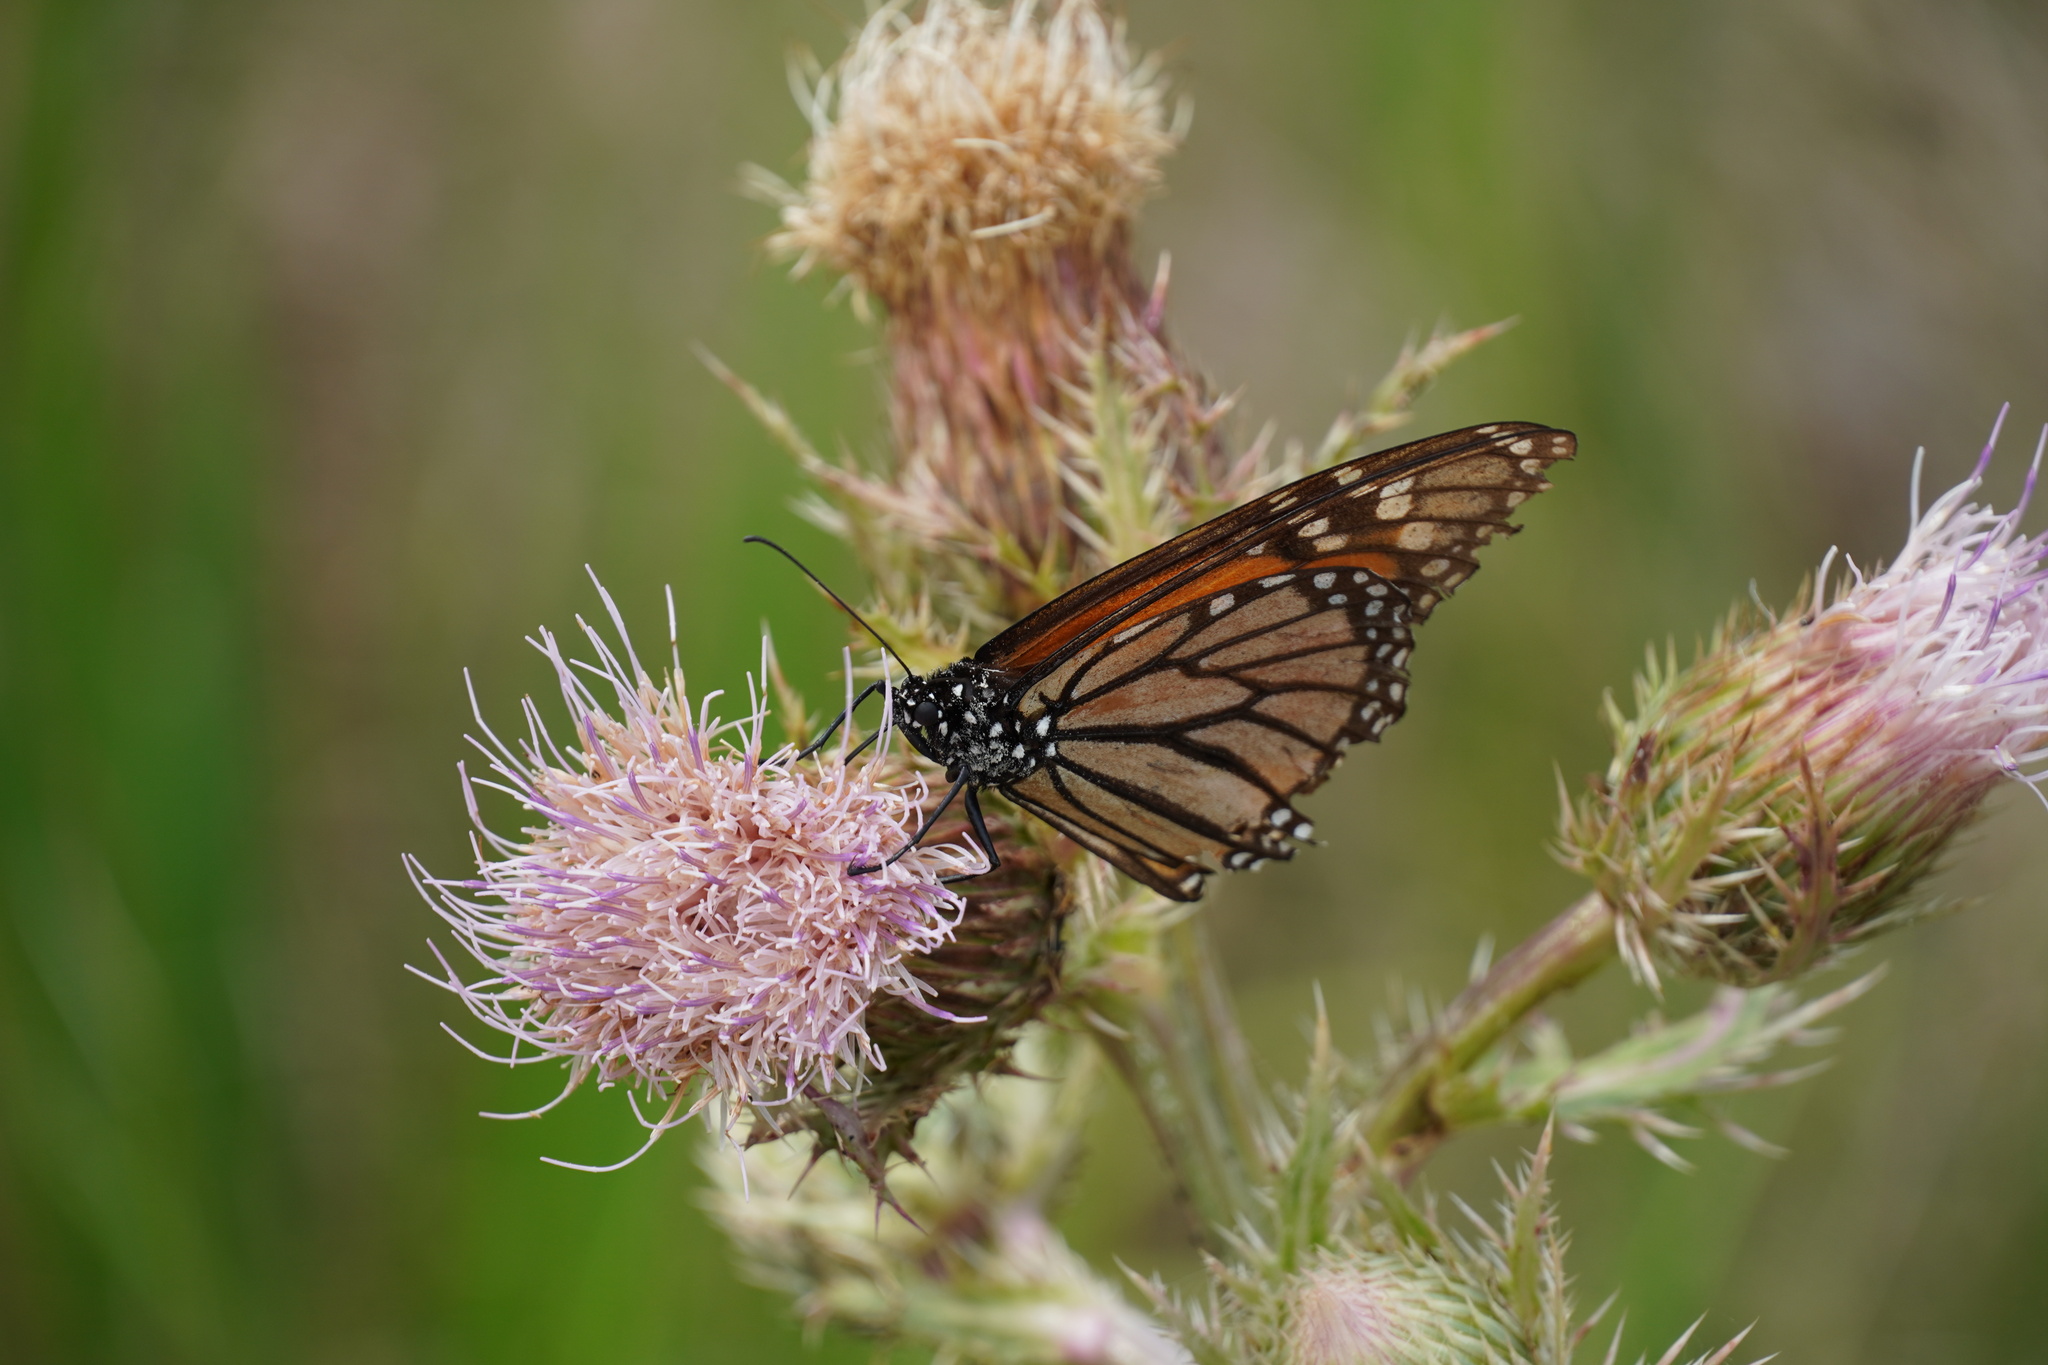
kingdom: Animalia
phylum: Arthropoda
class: Insecta
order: Lepidoptera
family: Nymphalidae
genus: Danaus
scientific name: Danaus plexippus
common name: Monarch
